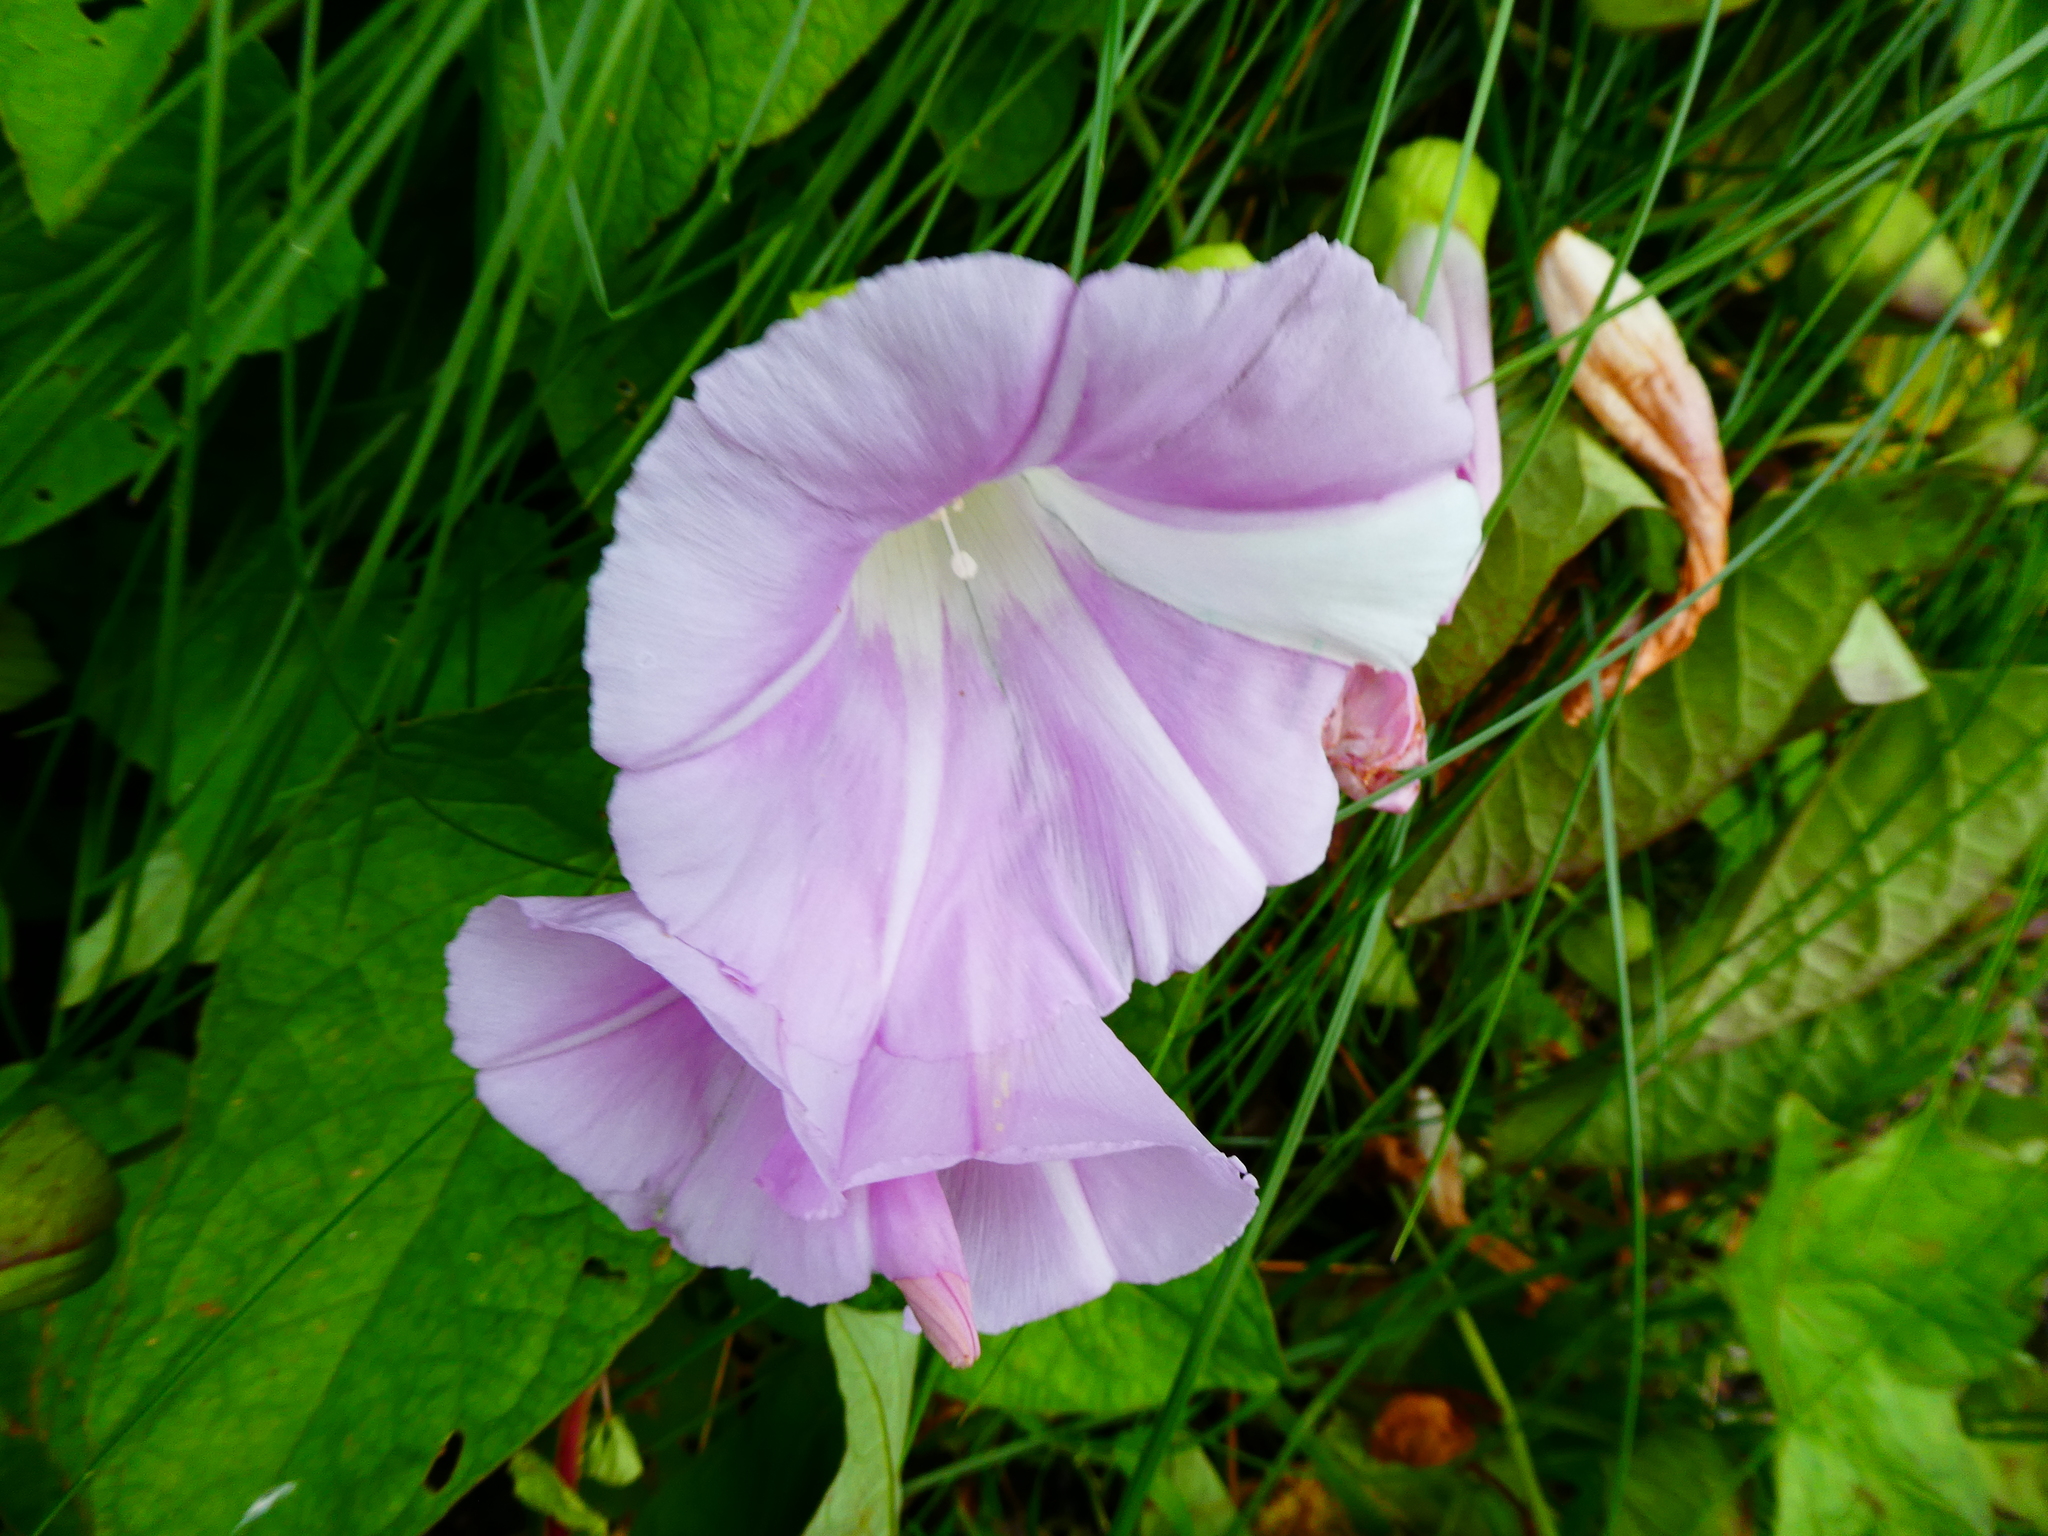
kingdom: Plantae
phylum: Tracheophyta
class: Magnoliopsida
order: Solanales
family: Convolvulaceae
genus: Calystegia
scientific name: Calystegia pulchra
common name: Hairy bindweed
